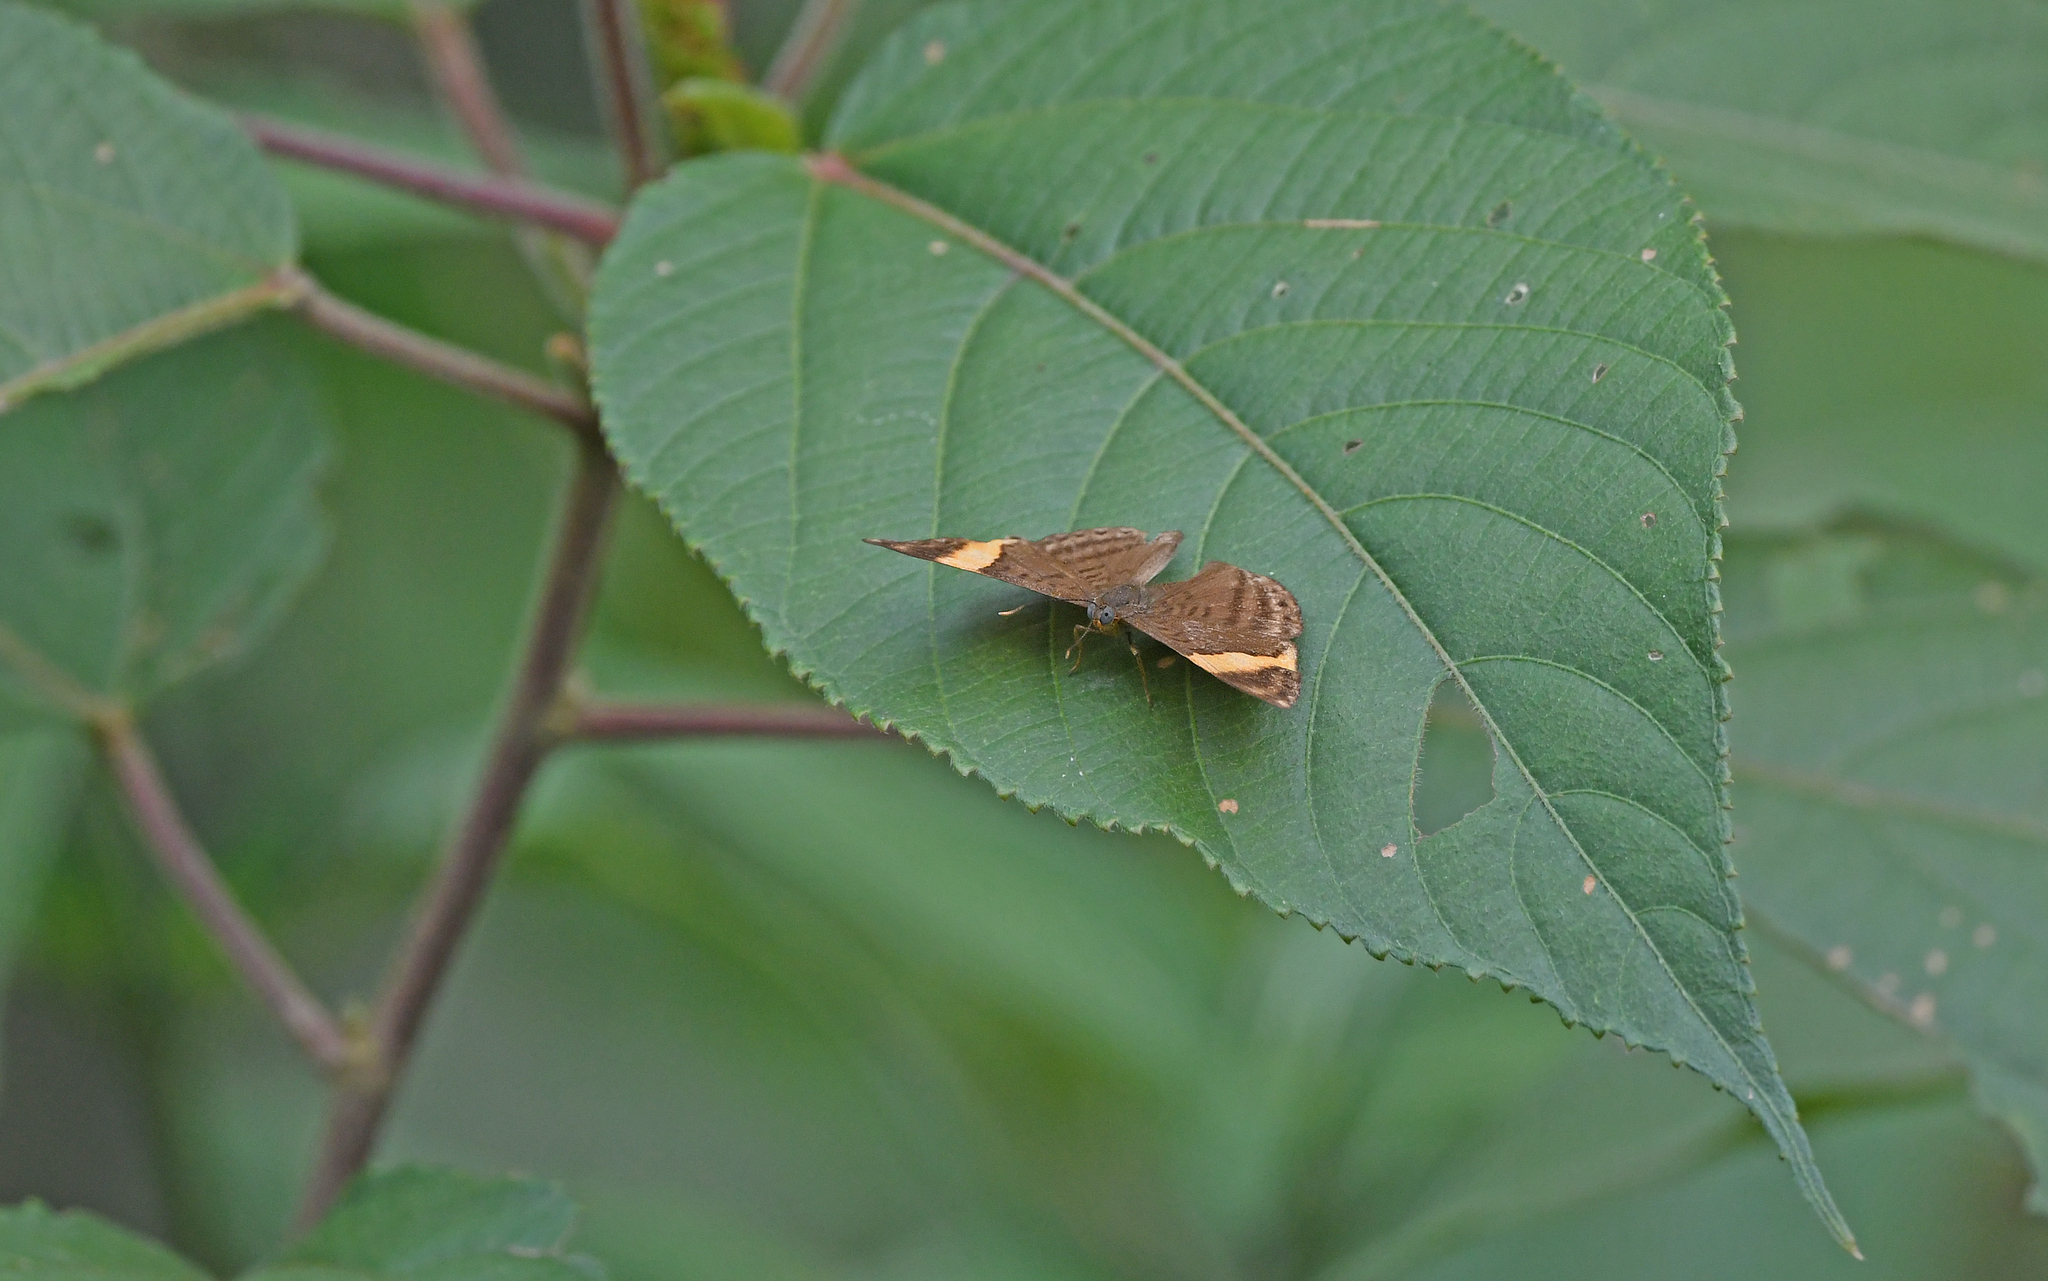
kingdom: Animalia
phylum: Arthropoda
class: Insecta
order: Lepidoptera
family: Lycaenidae
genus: Emesis
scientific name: Emesis cypria
